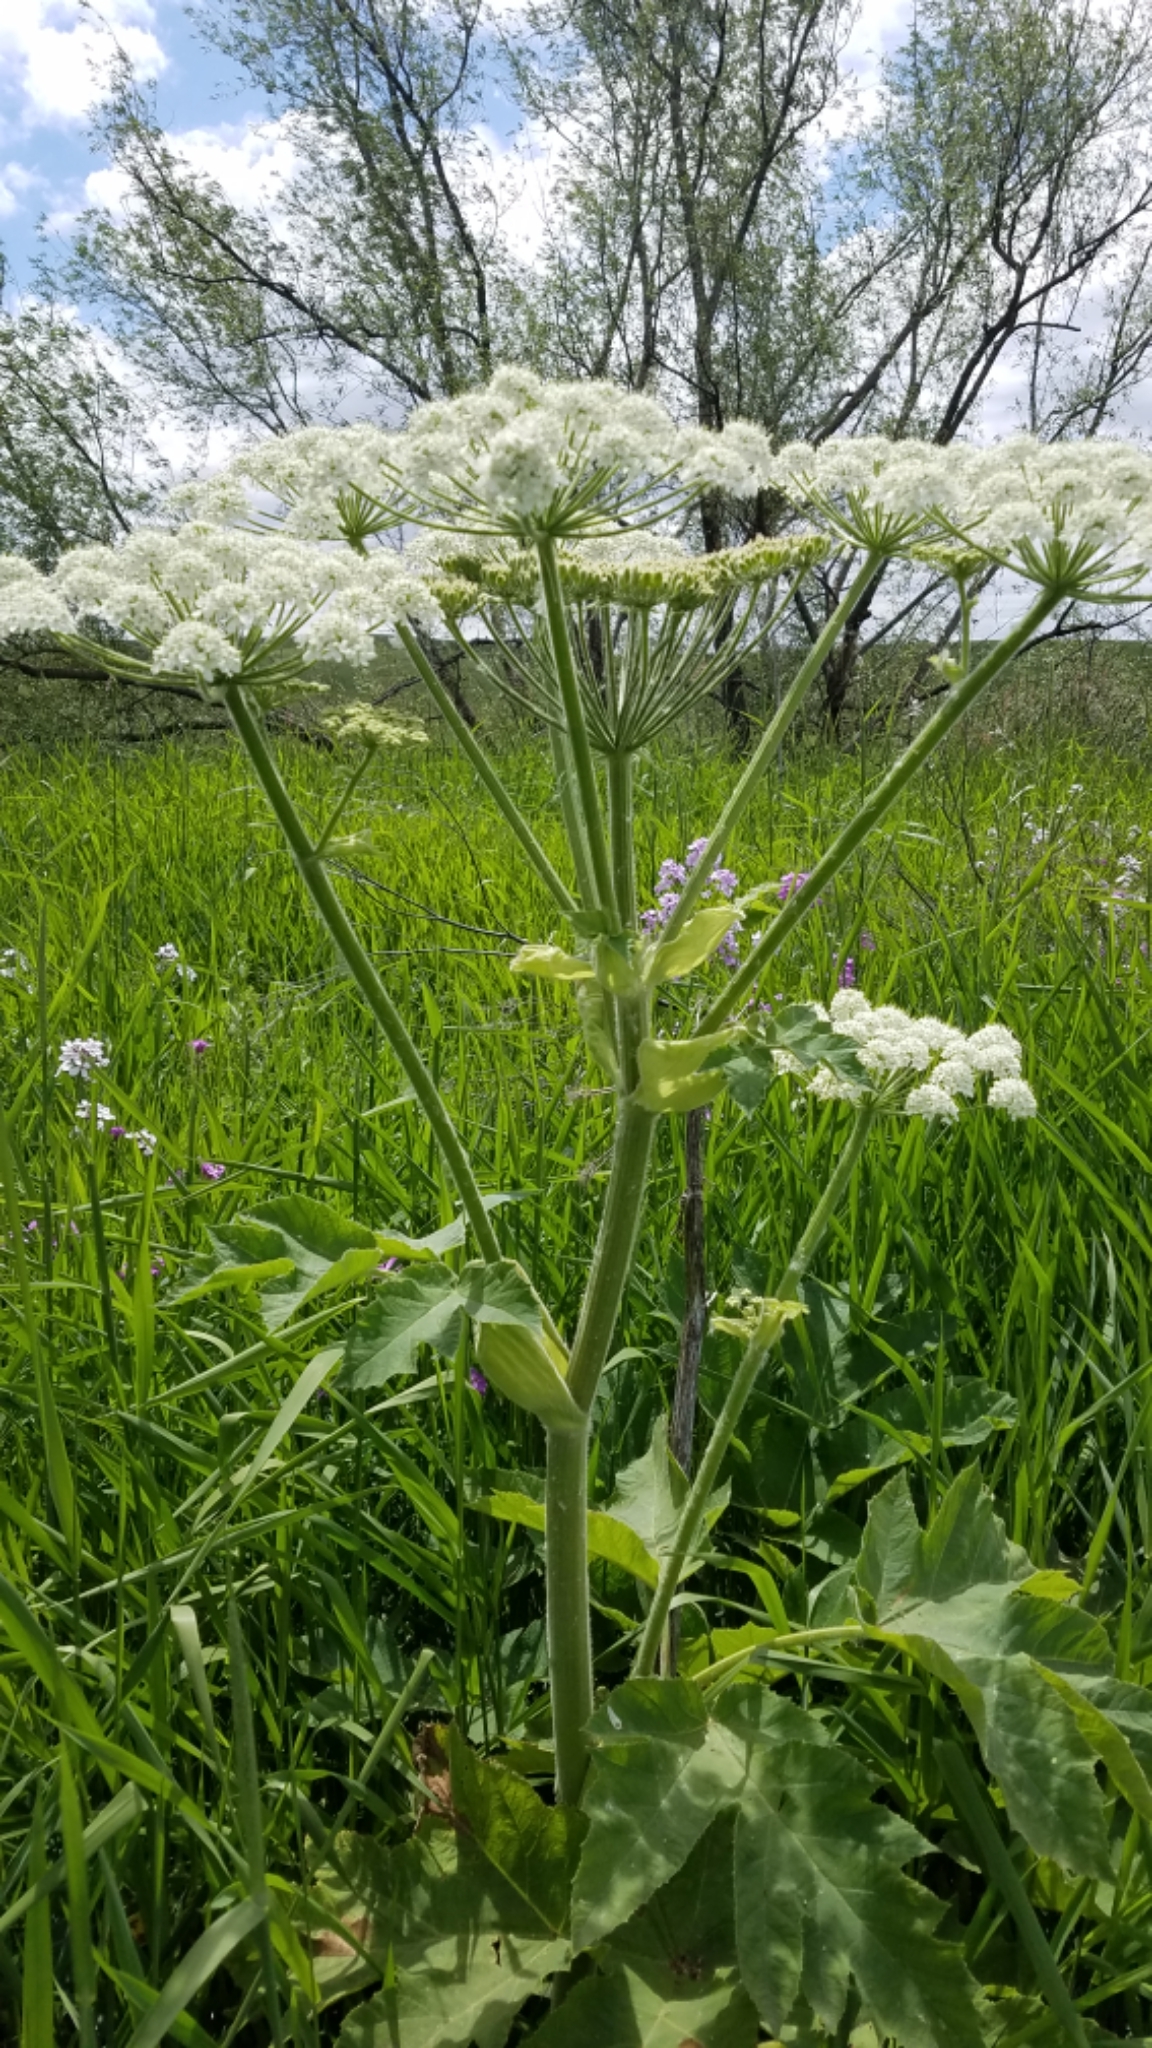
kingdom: Plantae
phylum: Tracheophyta
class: Magnoliopsida
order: Apiales
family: Apiaceae
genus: Heracleum
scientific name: Heracleum maximum
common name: American cow parsnip
